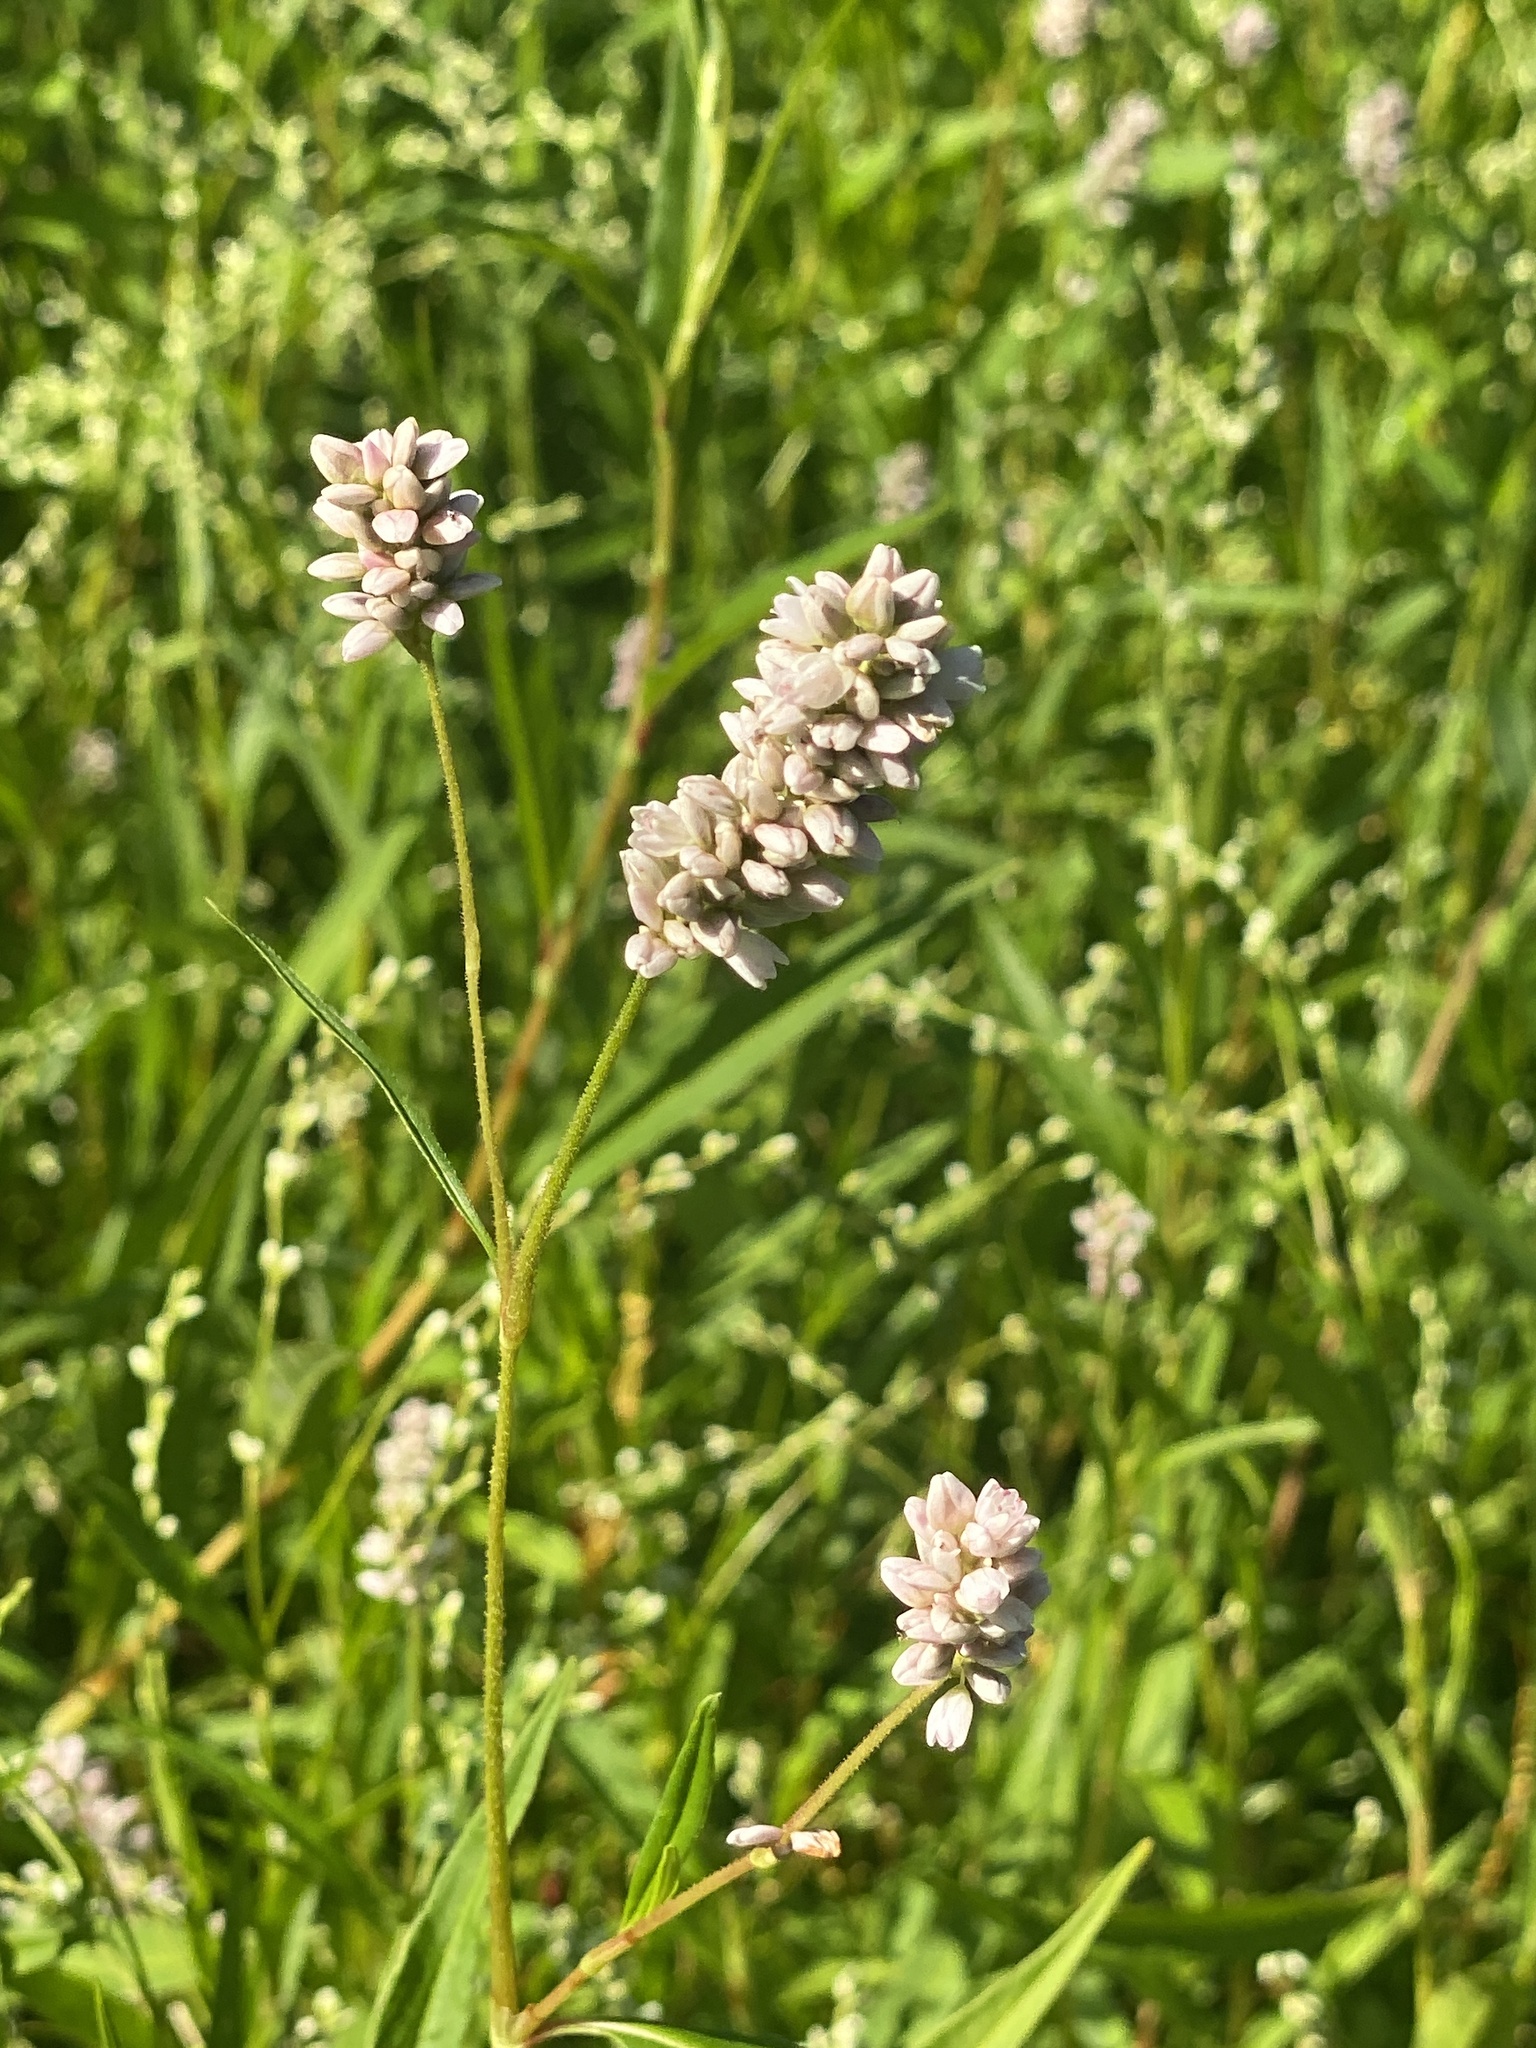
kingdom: Plantae
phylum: Tracheophyta
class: Magnoliopsida
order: Caryophyllales
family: Polygonaceae
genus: Persicaria
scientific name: Persicaria pensylvanica
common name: Pinkweed
